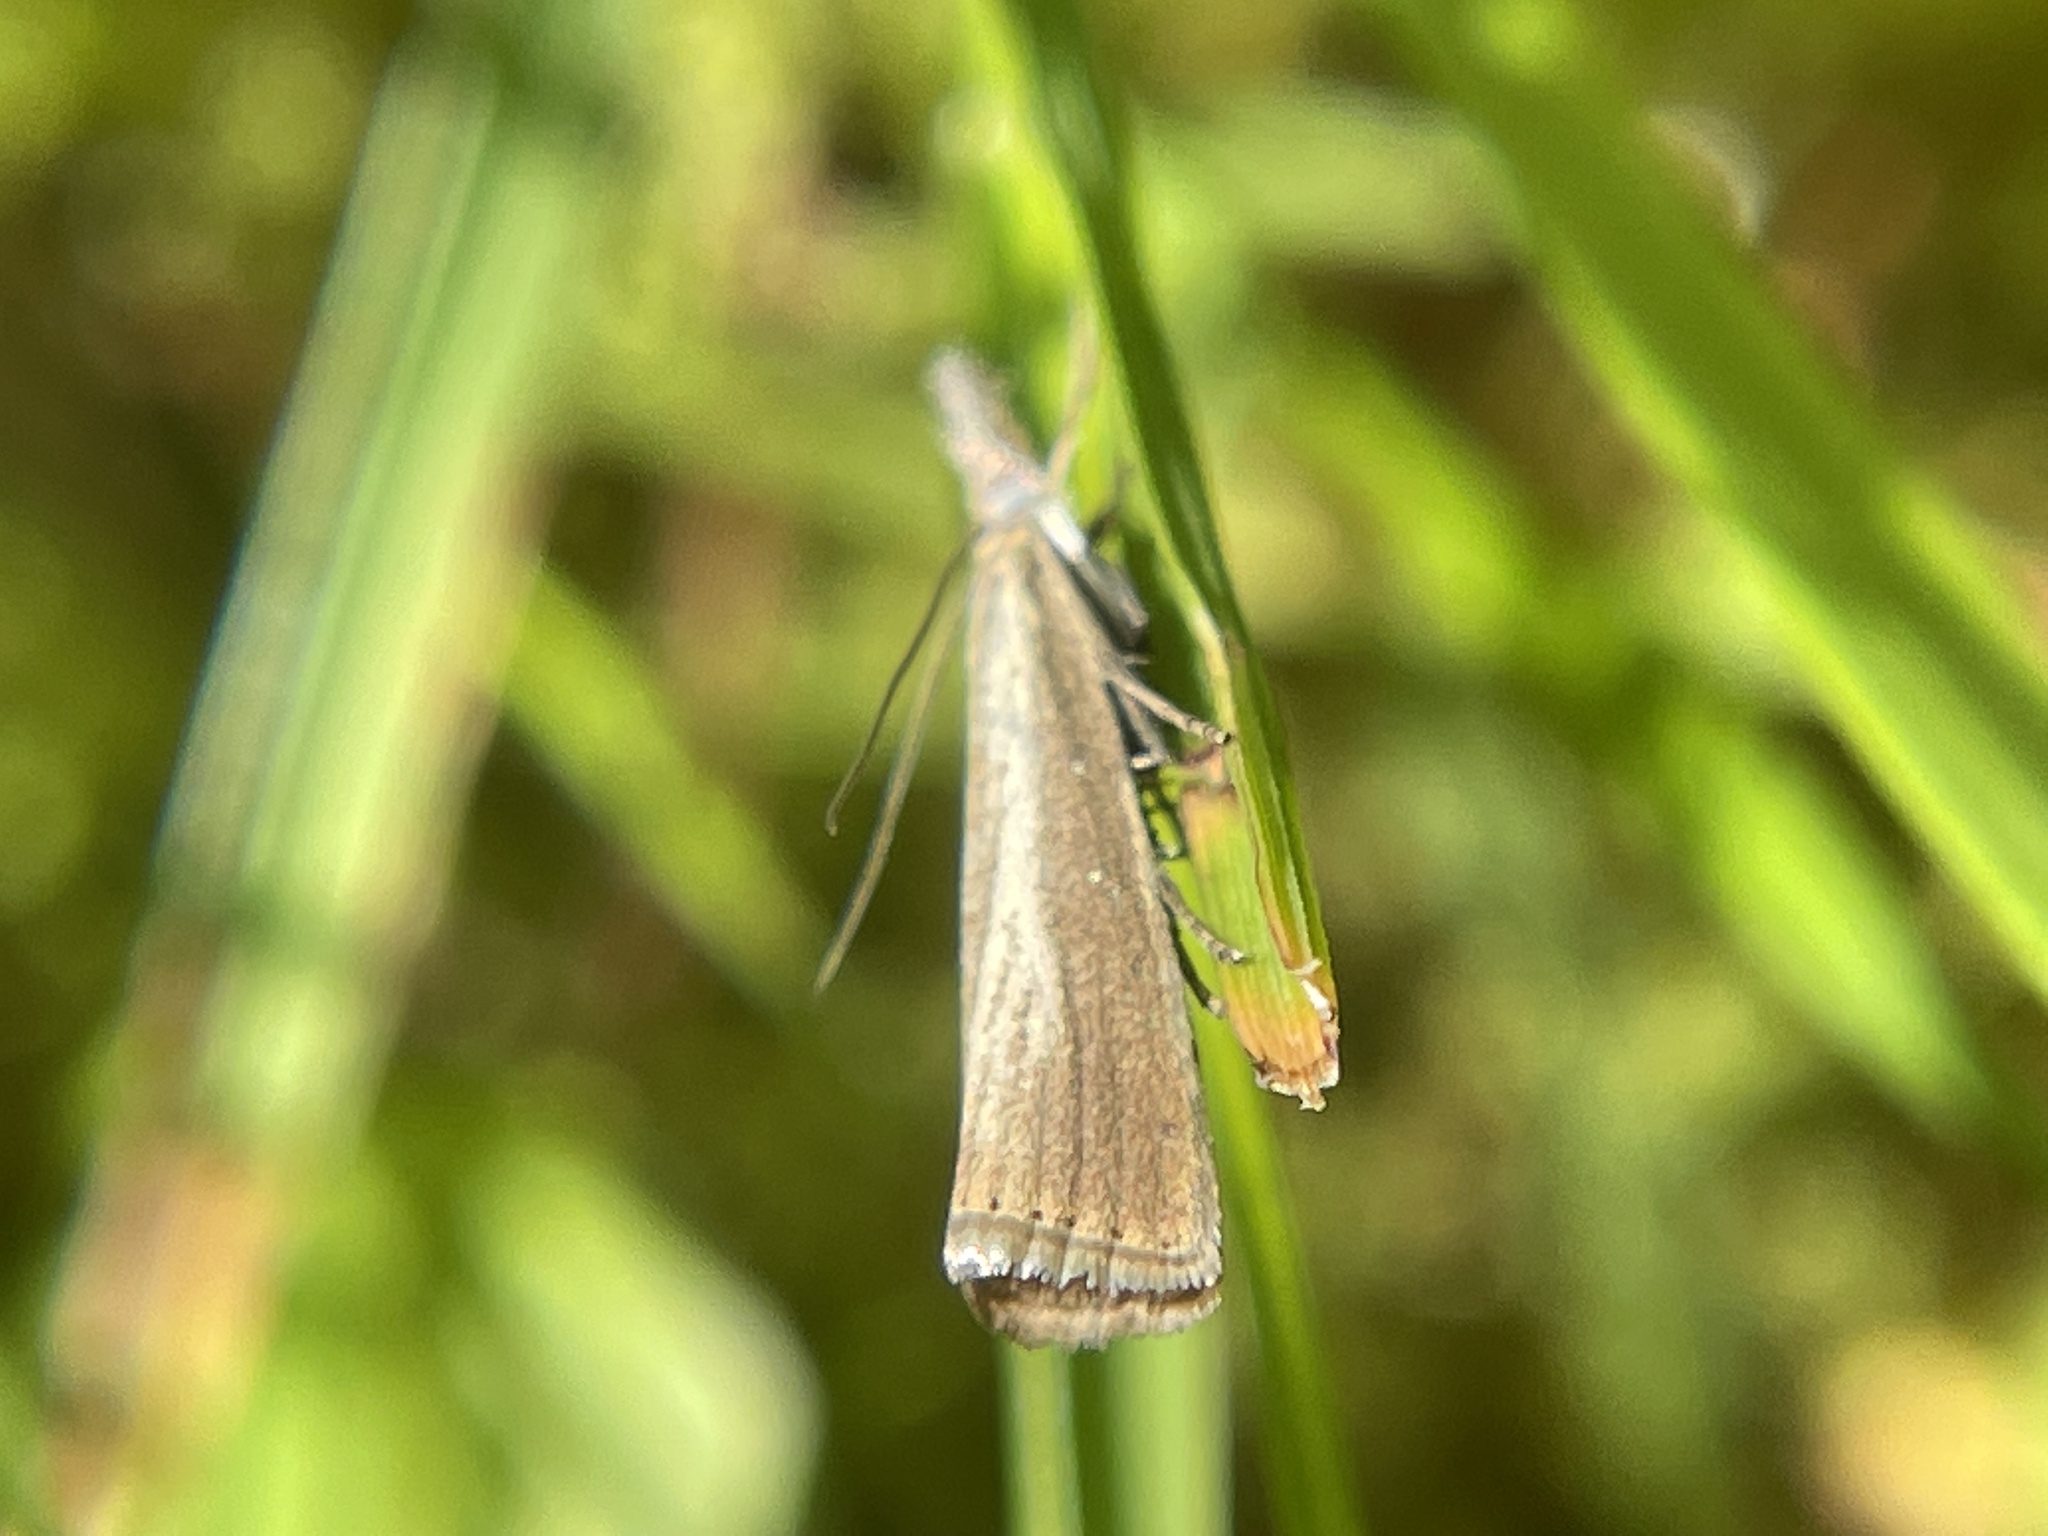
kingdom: Animalia
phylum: Arthropoda
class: Insecta
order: Lepidoptera
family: Crambidae
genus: Agriphila
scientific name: Agriphila straminella
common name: Straw grass-veneer
